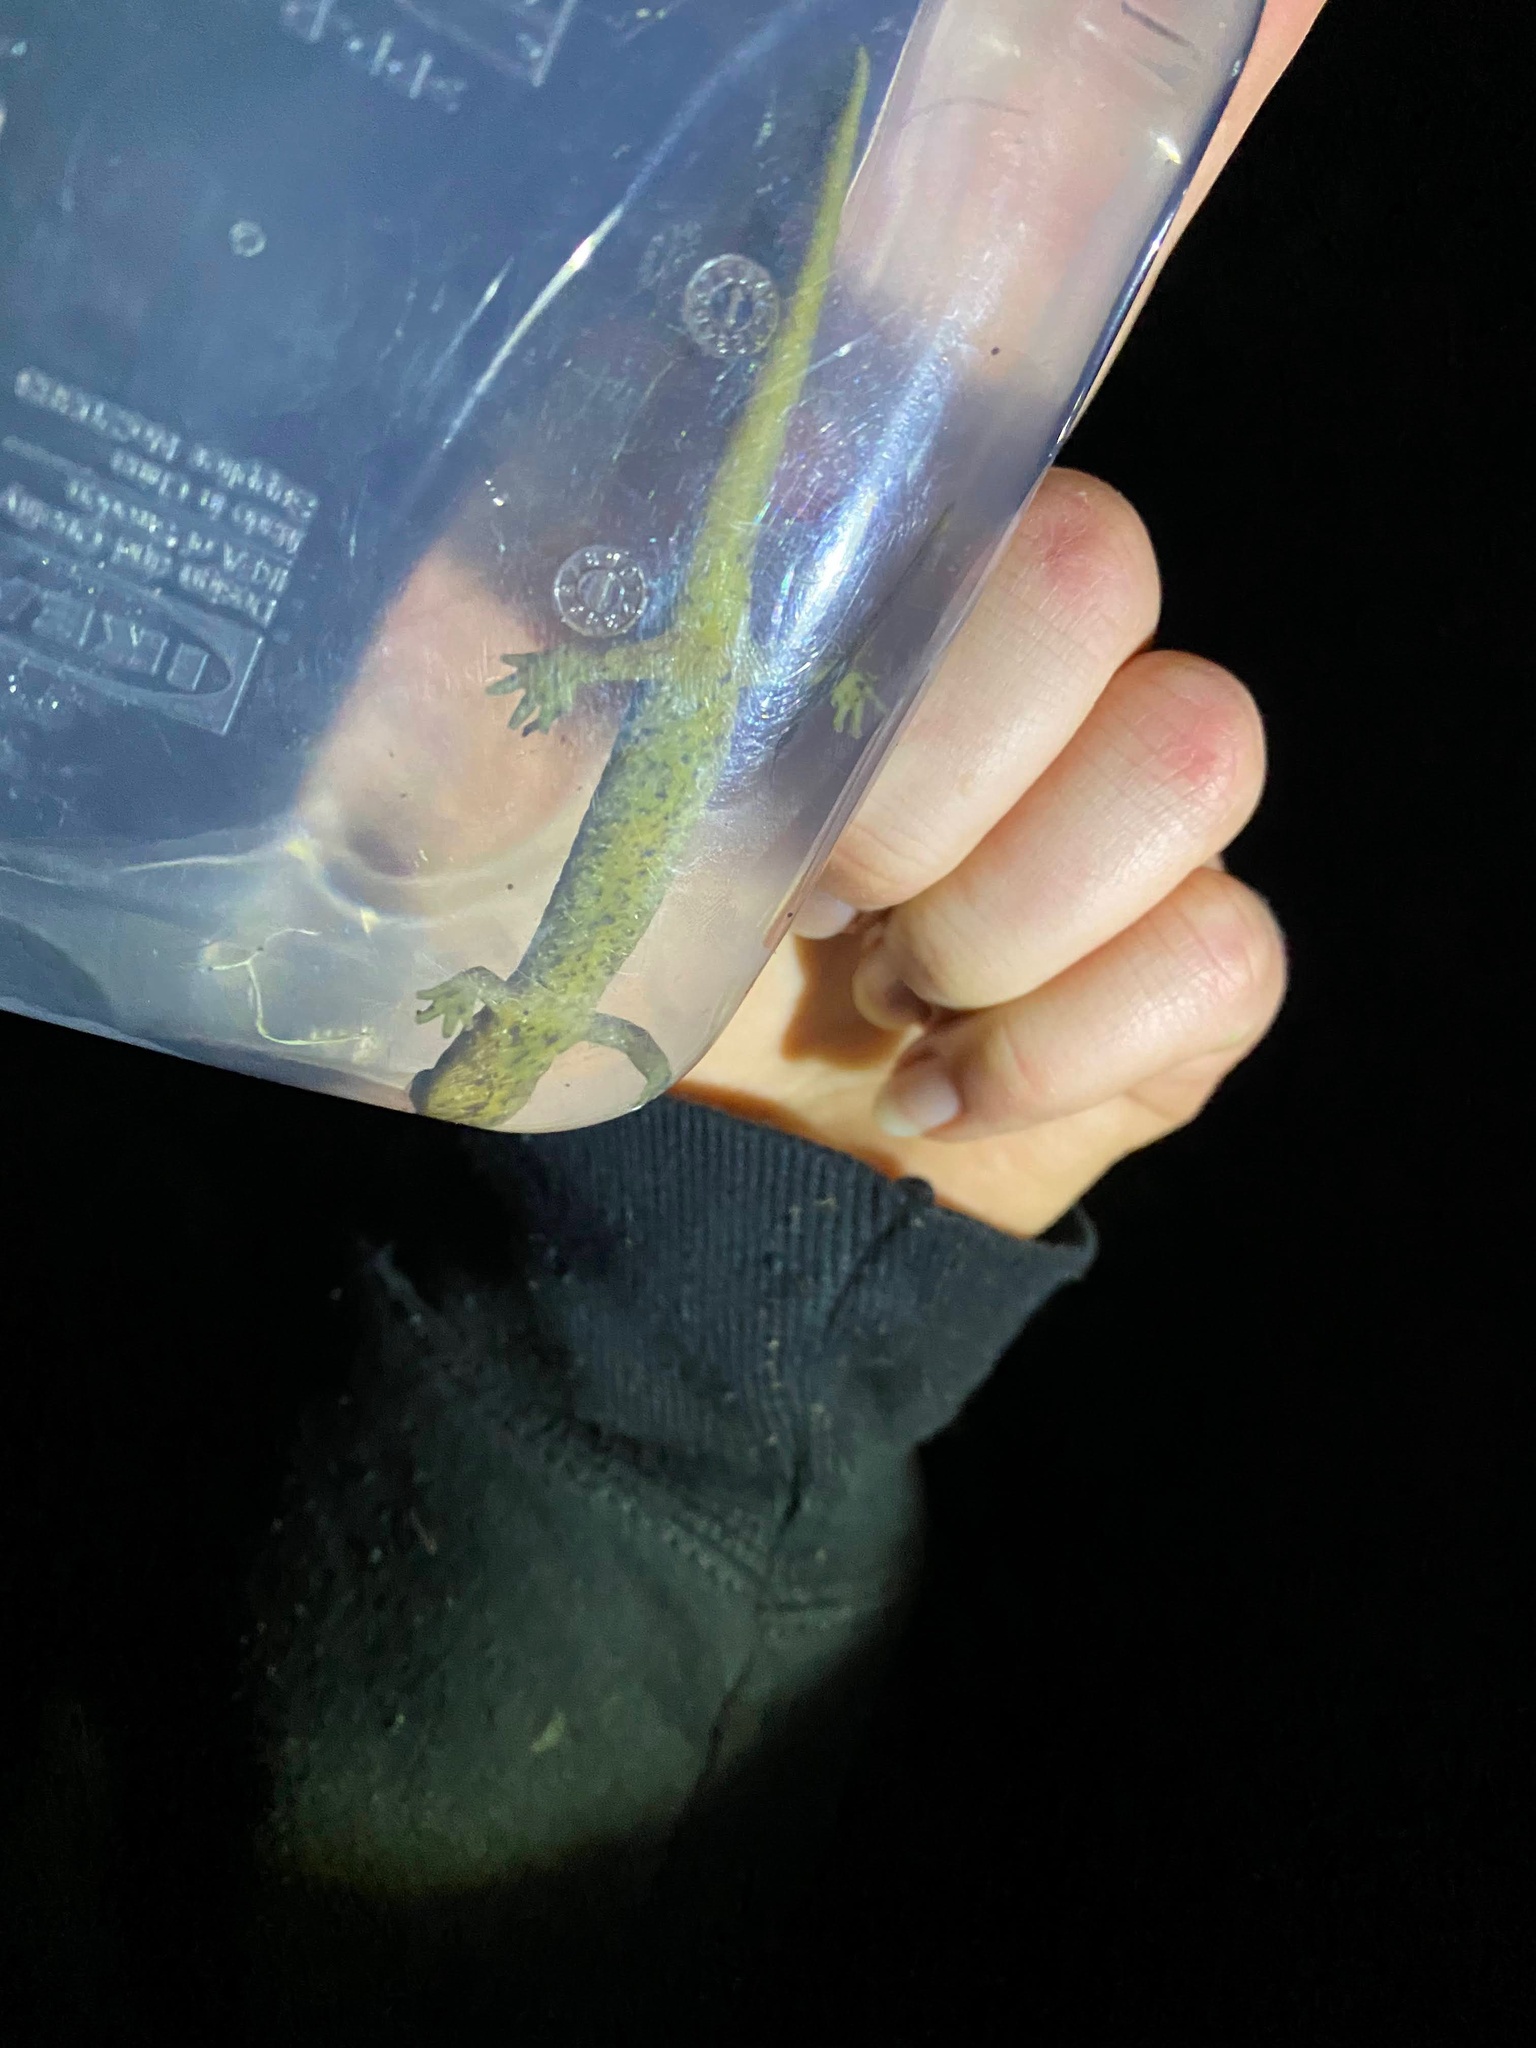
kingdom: Animalia
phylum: Chordata
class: Amphibia
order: Caudata
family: Rhyacotritonidae
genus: Rhyacotriton
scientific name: Rhyacotriton variegatus
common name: Southern torrent salamander
